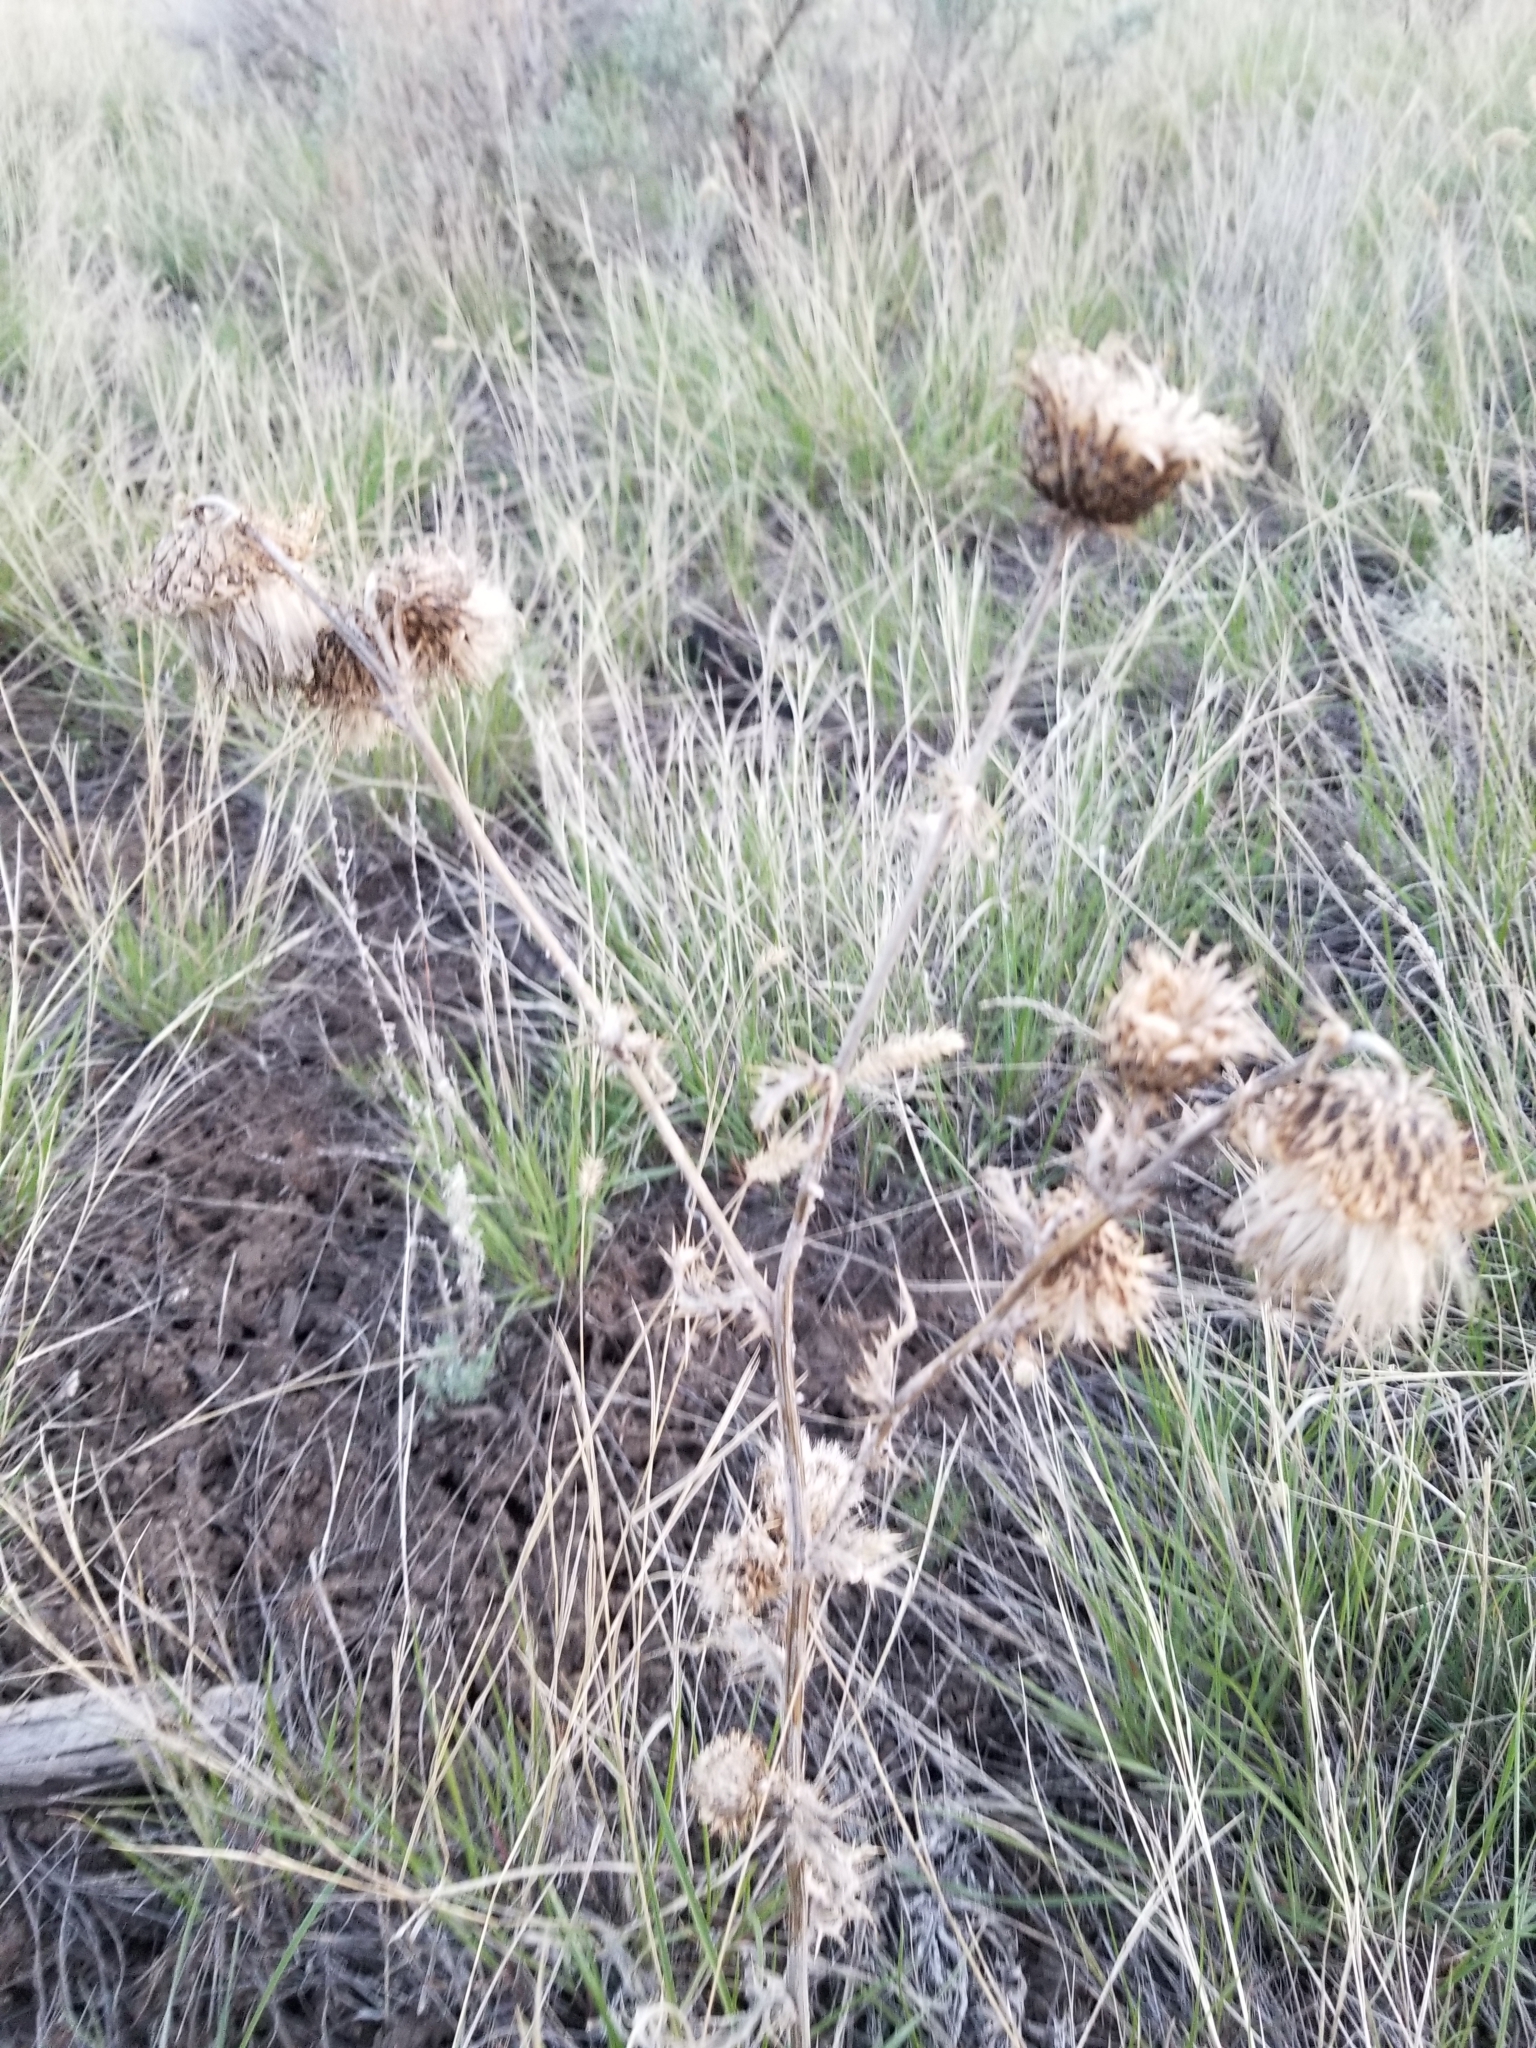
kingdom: Plantae
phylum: Tracheophyta
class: Magnoliopsida
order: Asterales
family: Asteraceae
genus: Cirsium
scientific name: Cirsium undulatum
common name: Pasture thistle
